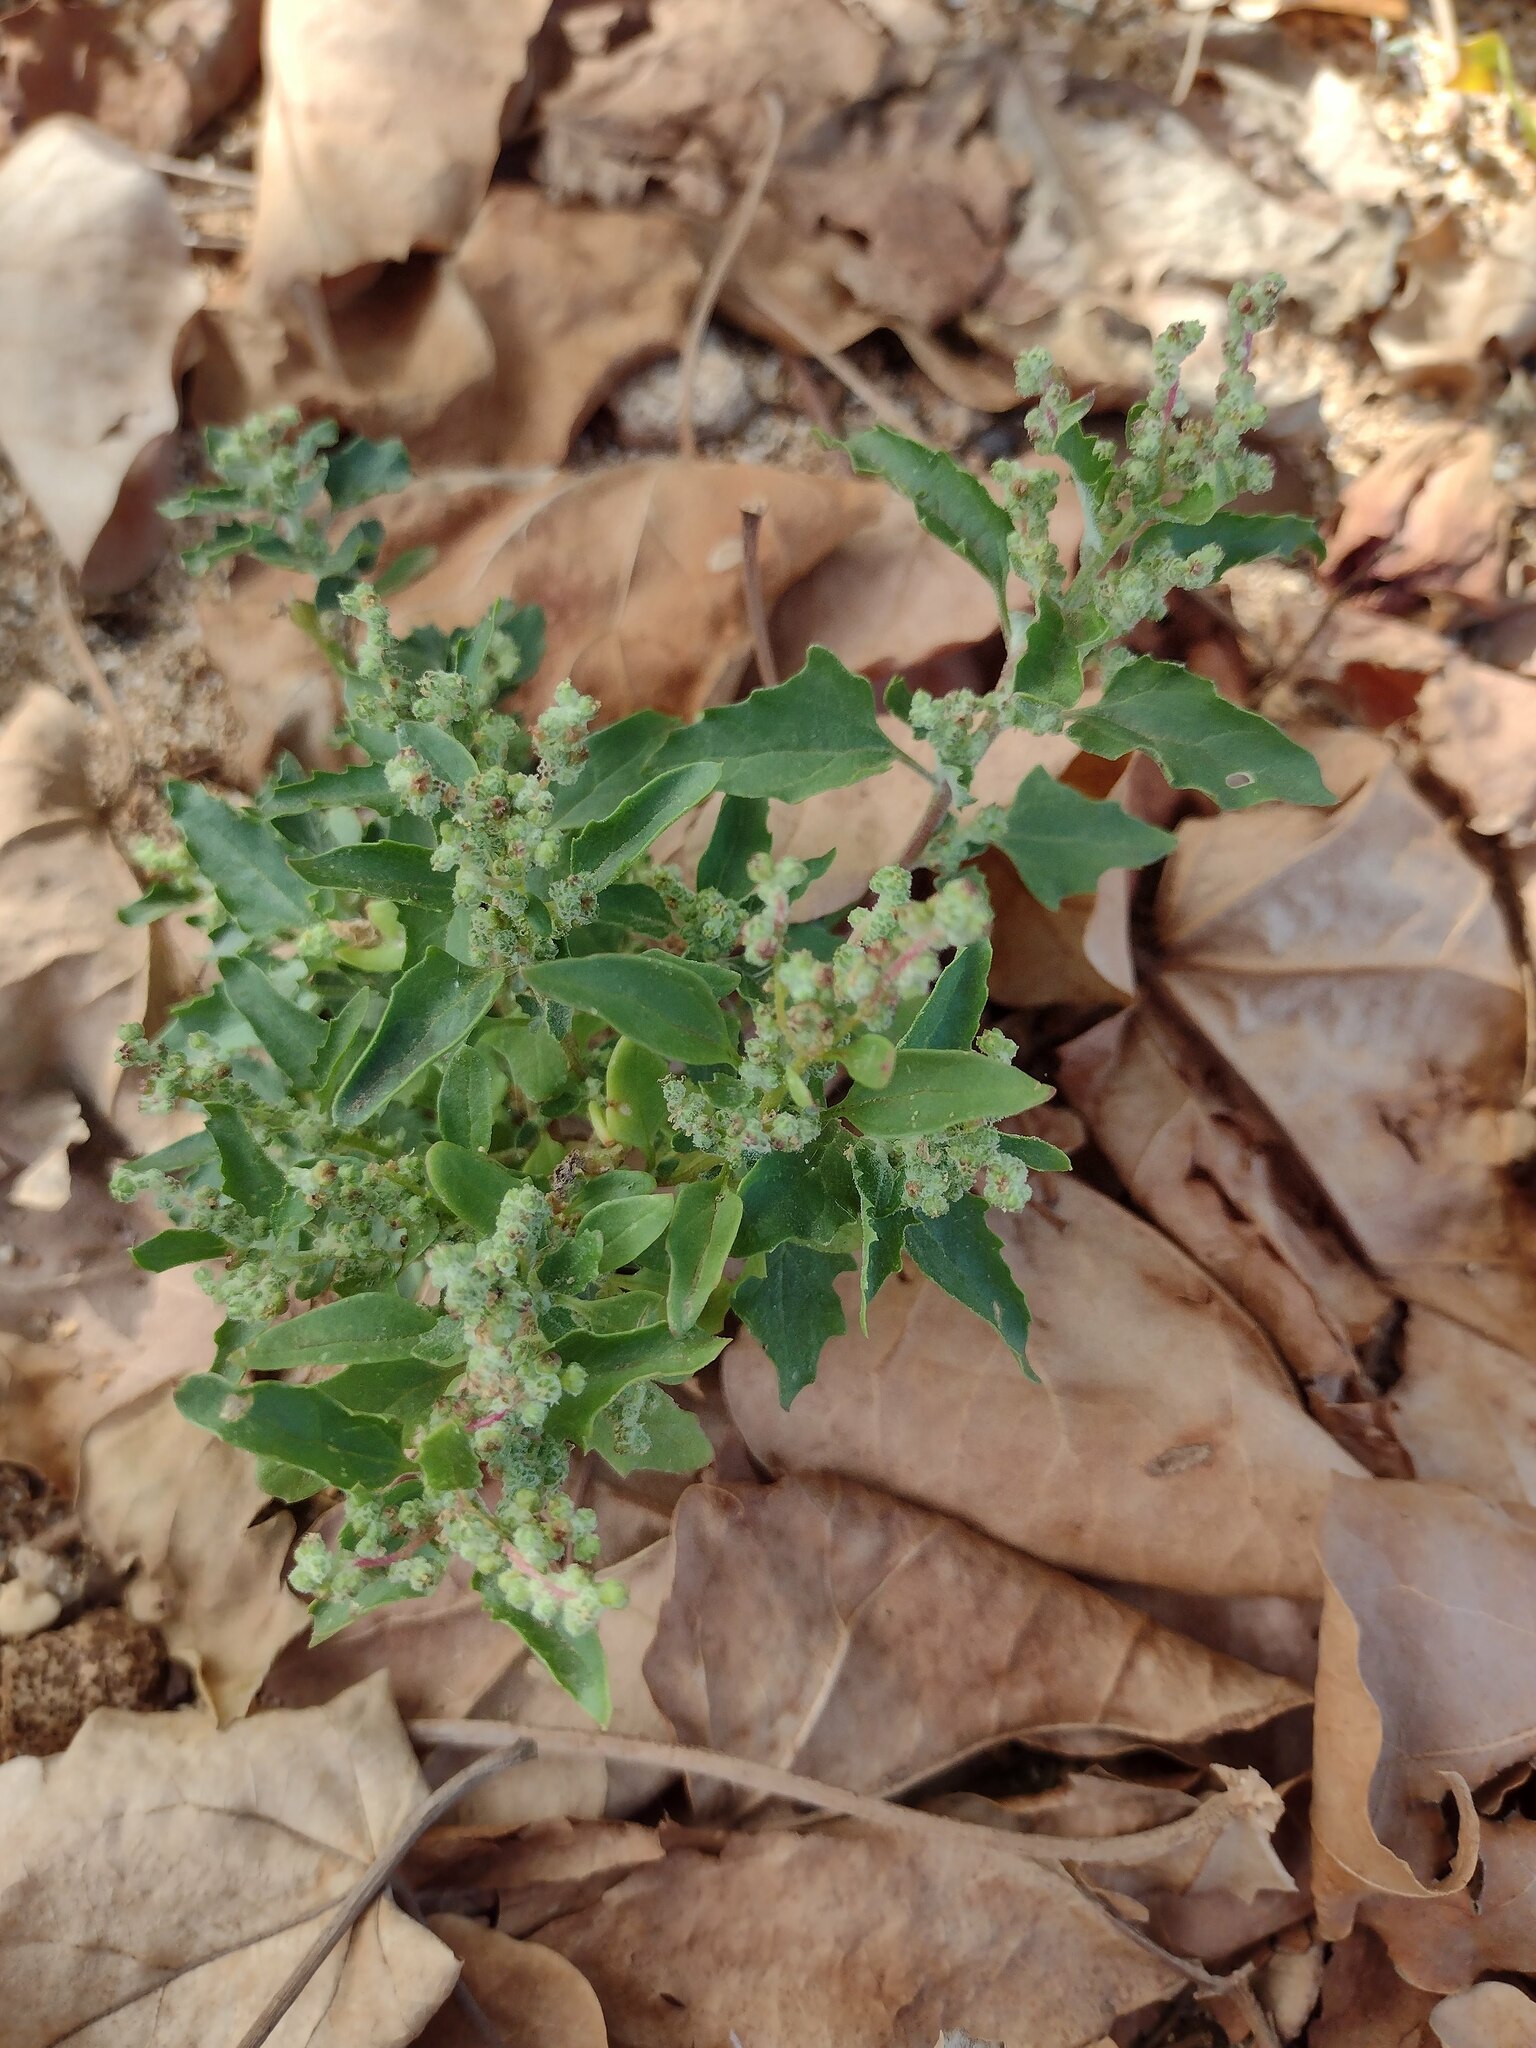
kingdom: Plantae
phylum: Tracheophyta
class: Magnoliopsida
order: Caryophyllales
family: Amaranthaceae
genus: Chenopodiastrum
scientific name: Chenopodiastrum murale
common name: Sowbane
